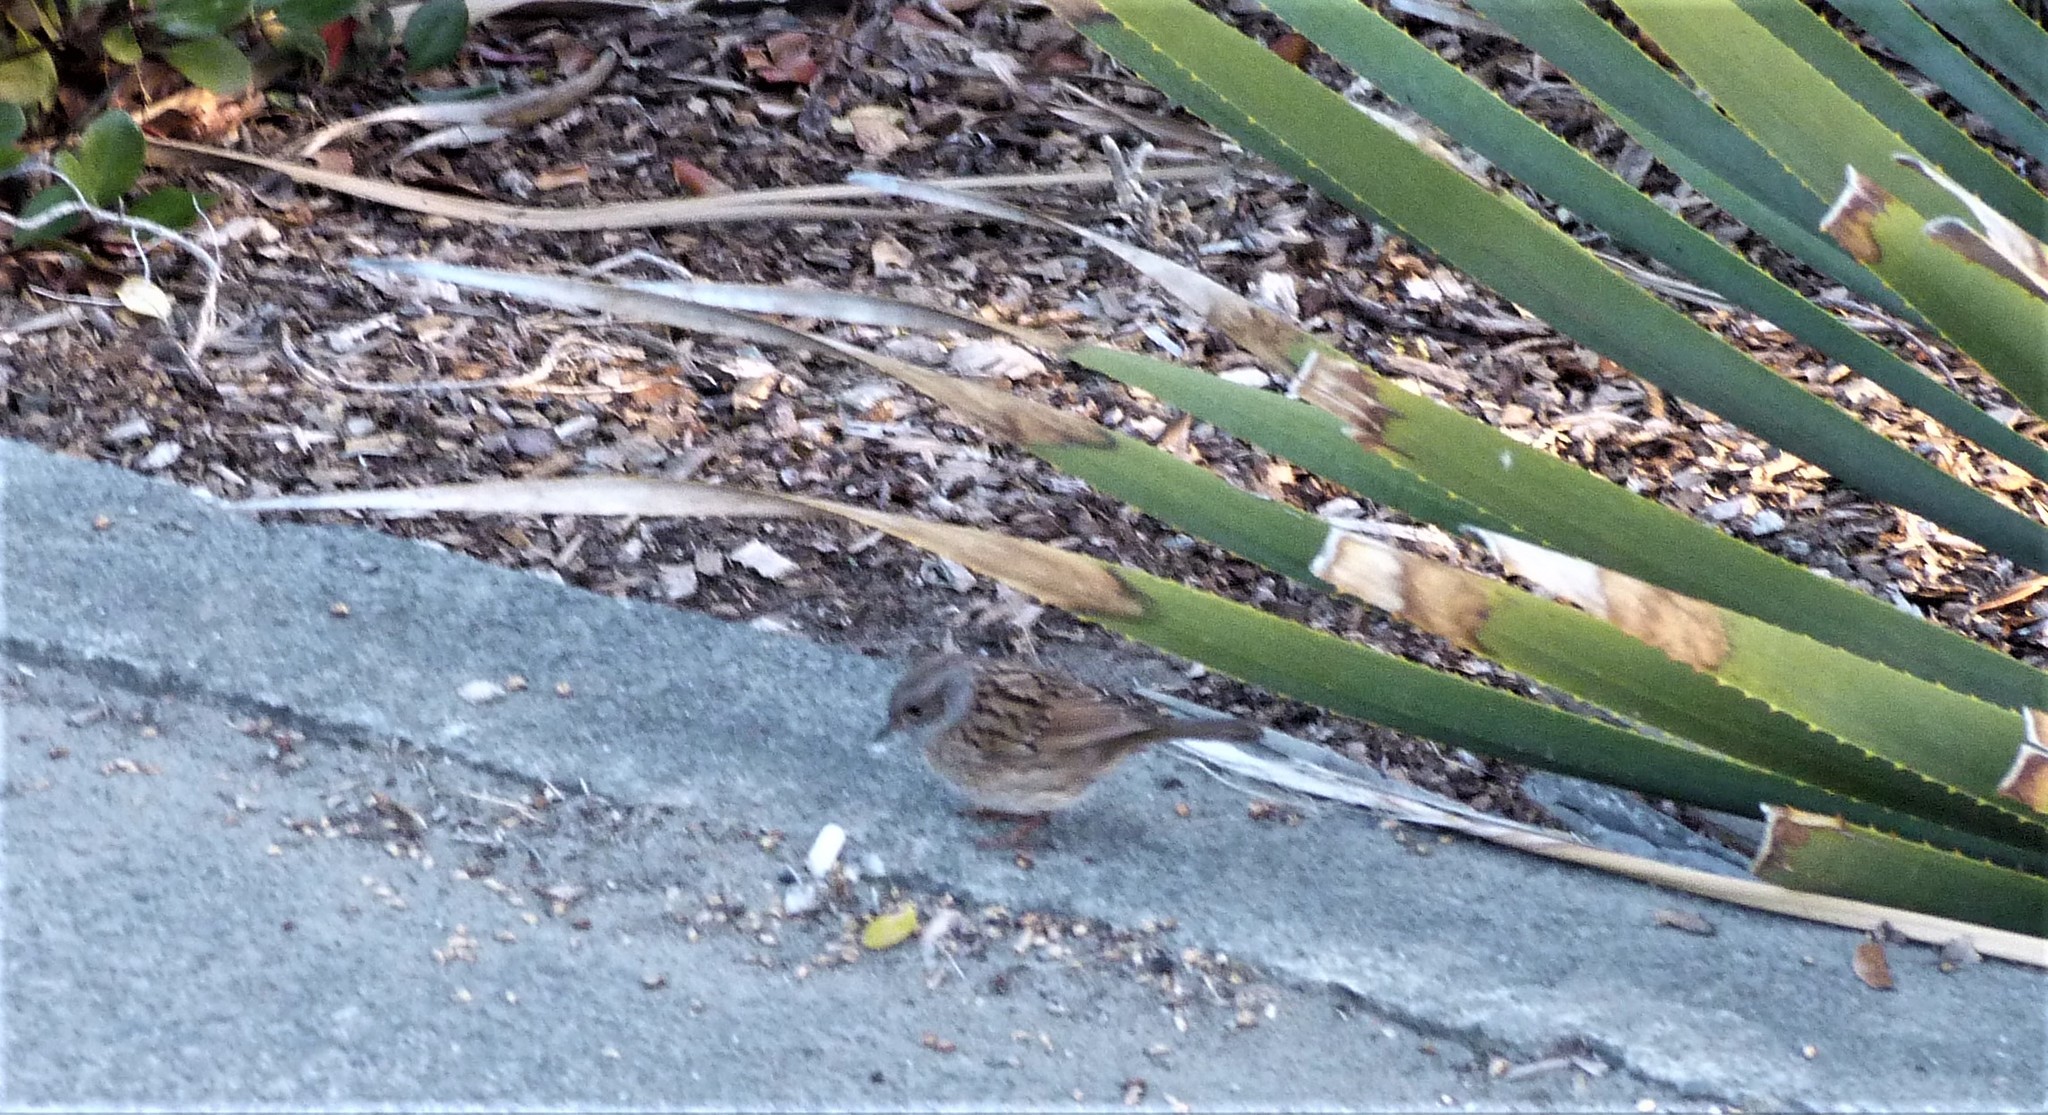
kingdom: Animalia
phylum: Chordata
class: Aves
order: Passeriformes
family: Prunellidae
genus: Prunella
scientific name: Prunella modularis
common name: Dunnock
